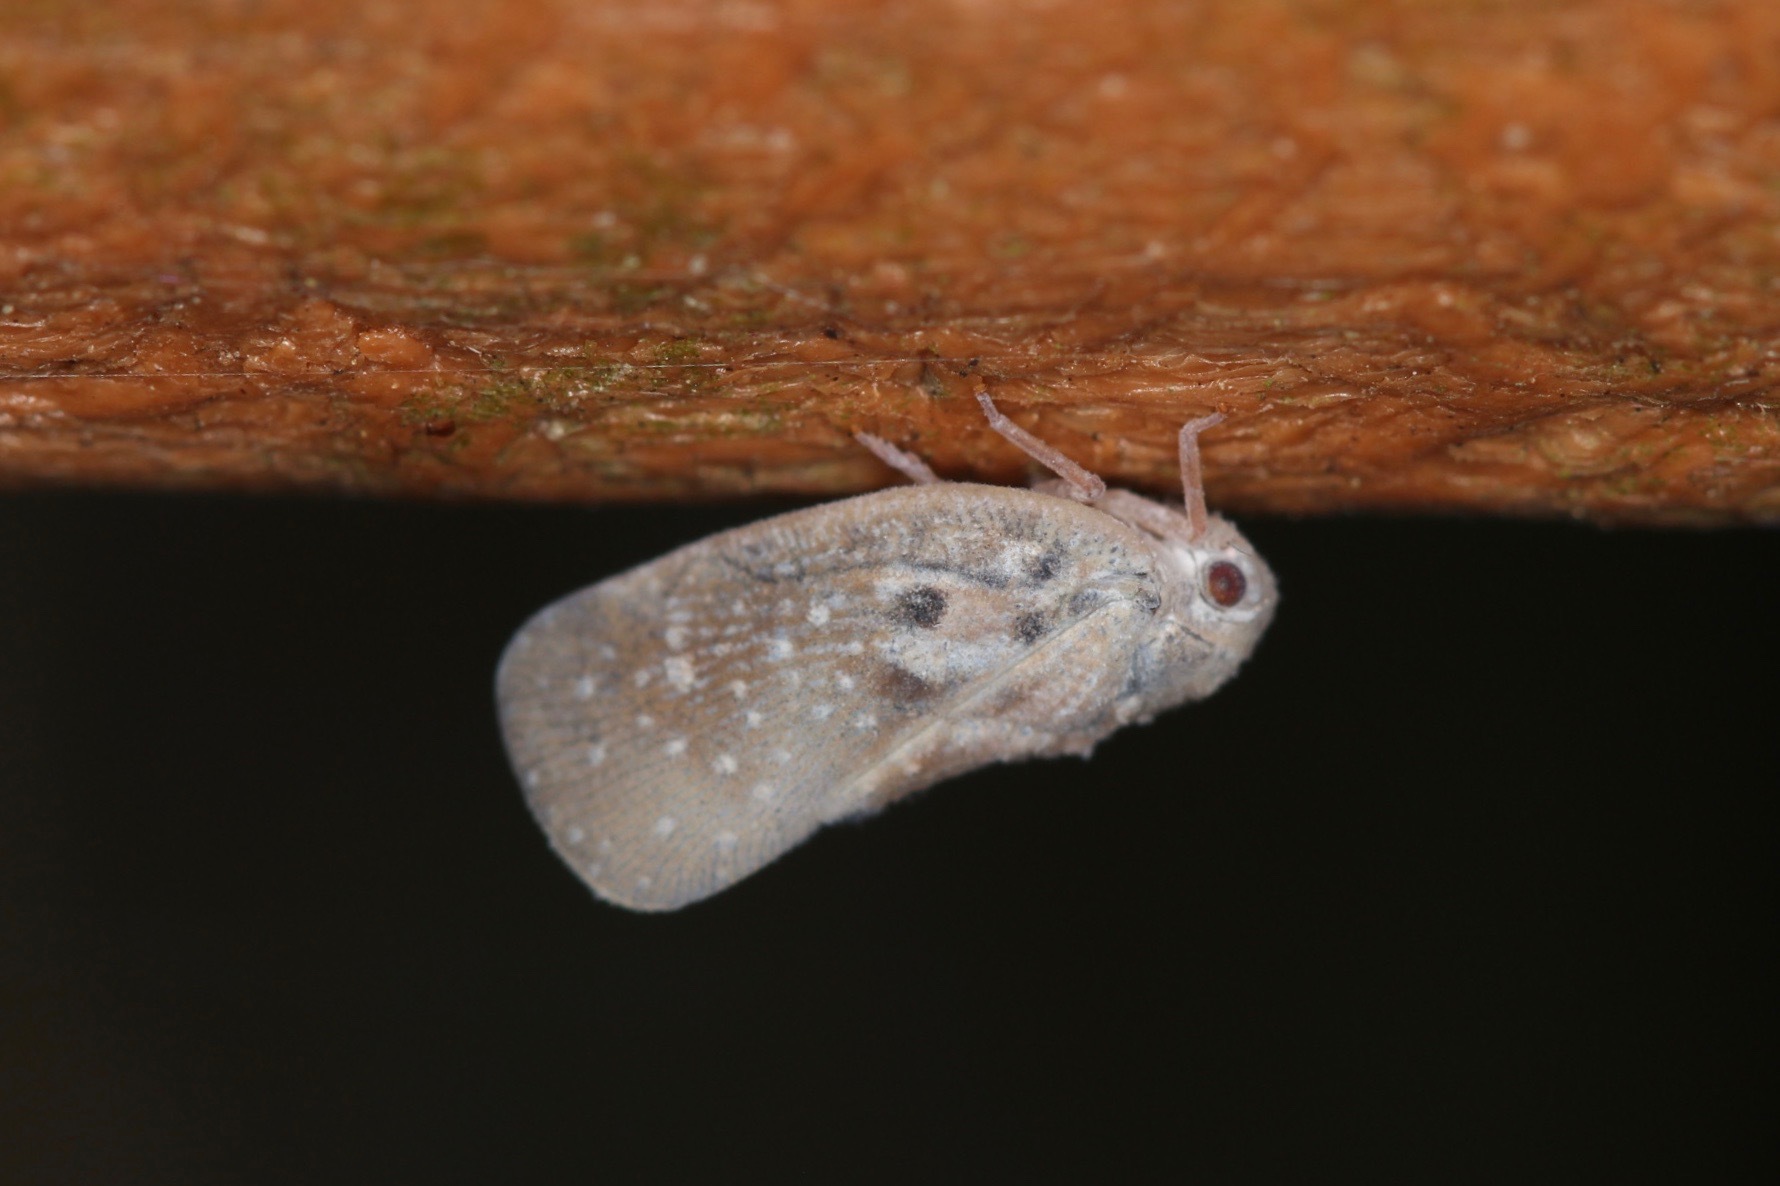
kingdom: Animalia
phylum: Arthropoda
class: Insecta
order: Hemiptera
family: Flatidae
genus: Metcalfa
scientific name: Metcalfa pruinosa
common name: Citrus flatid planthopper
